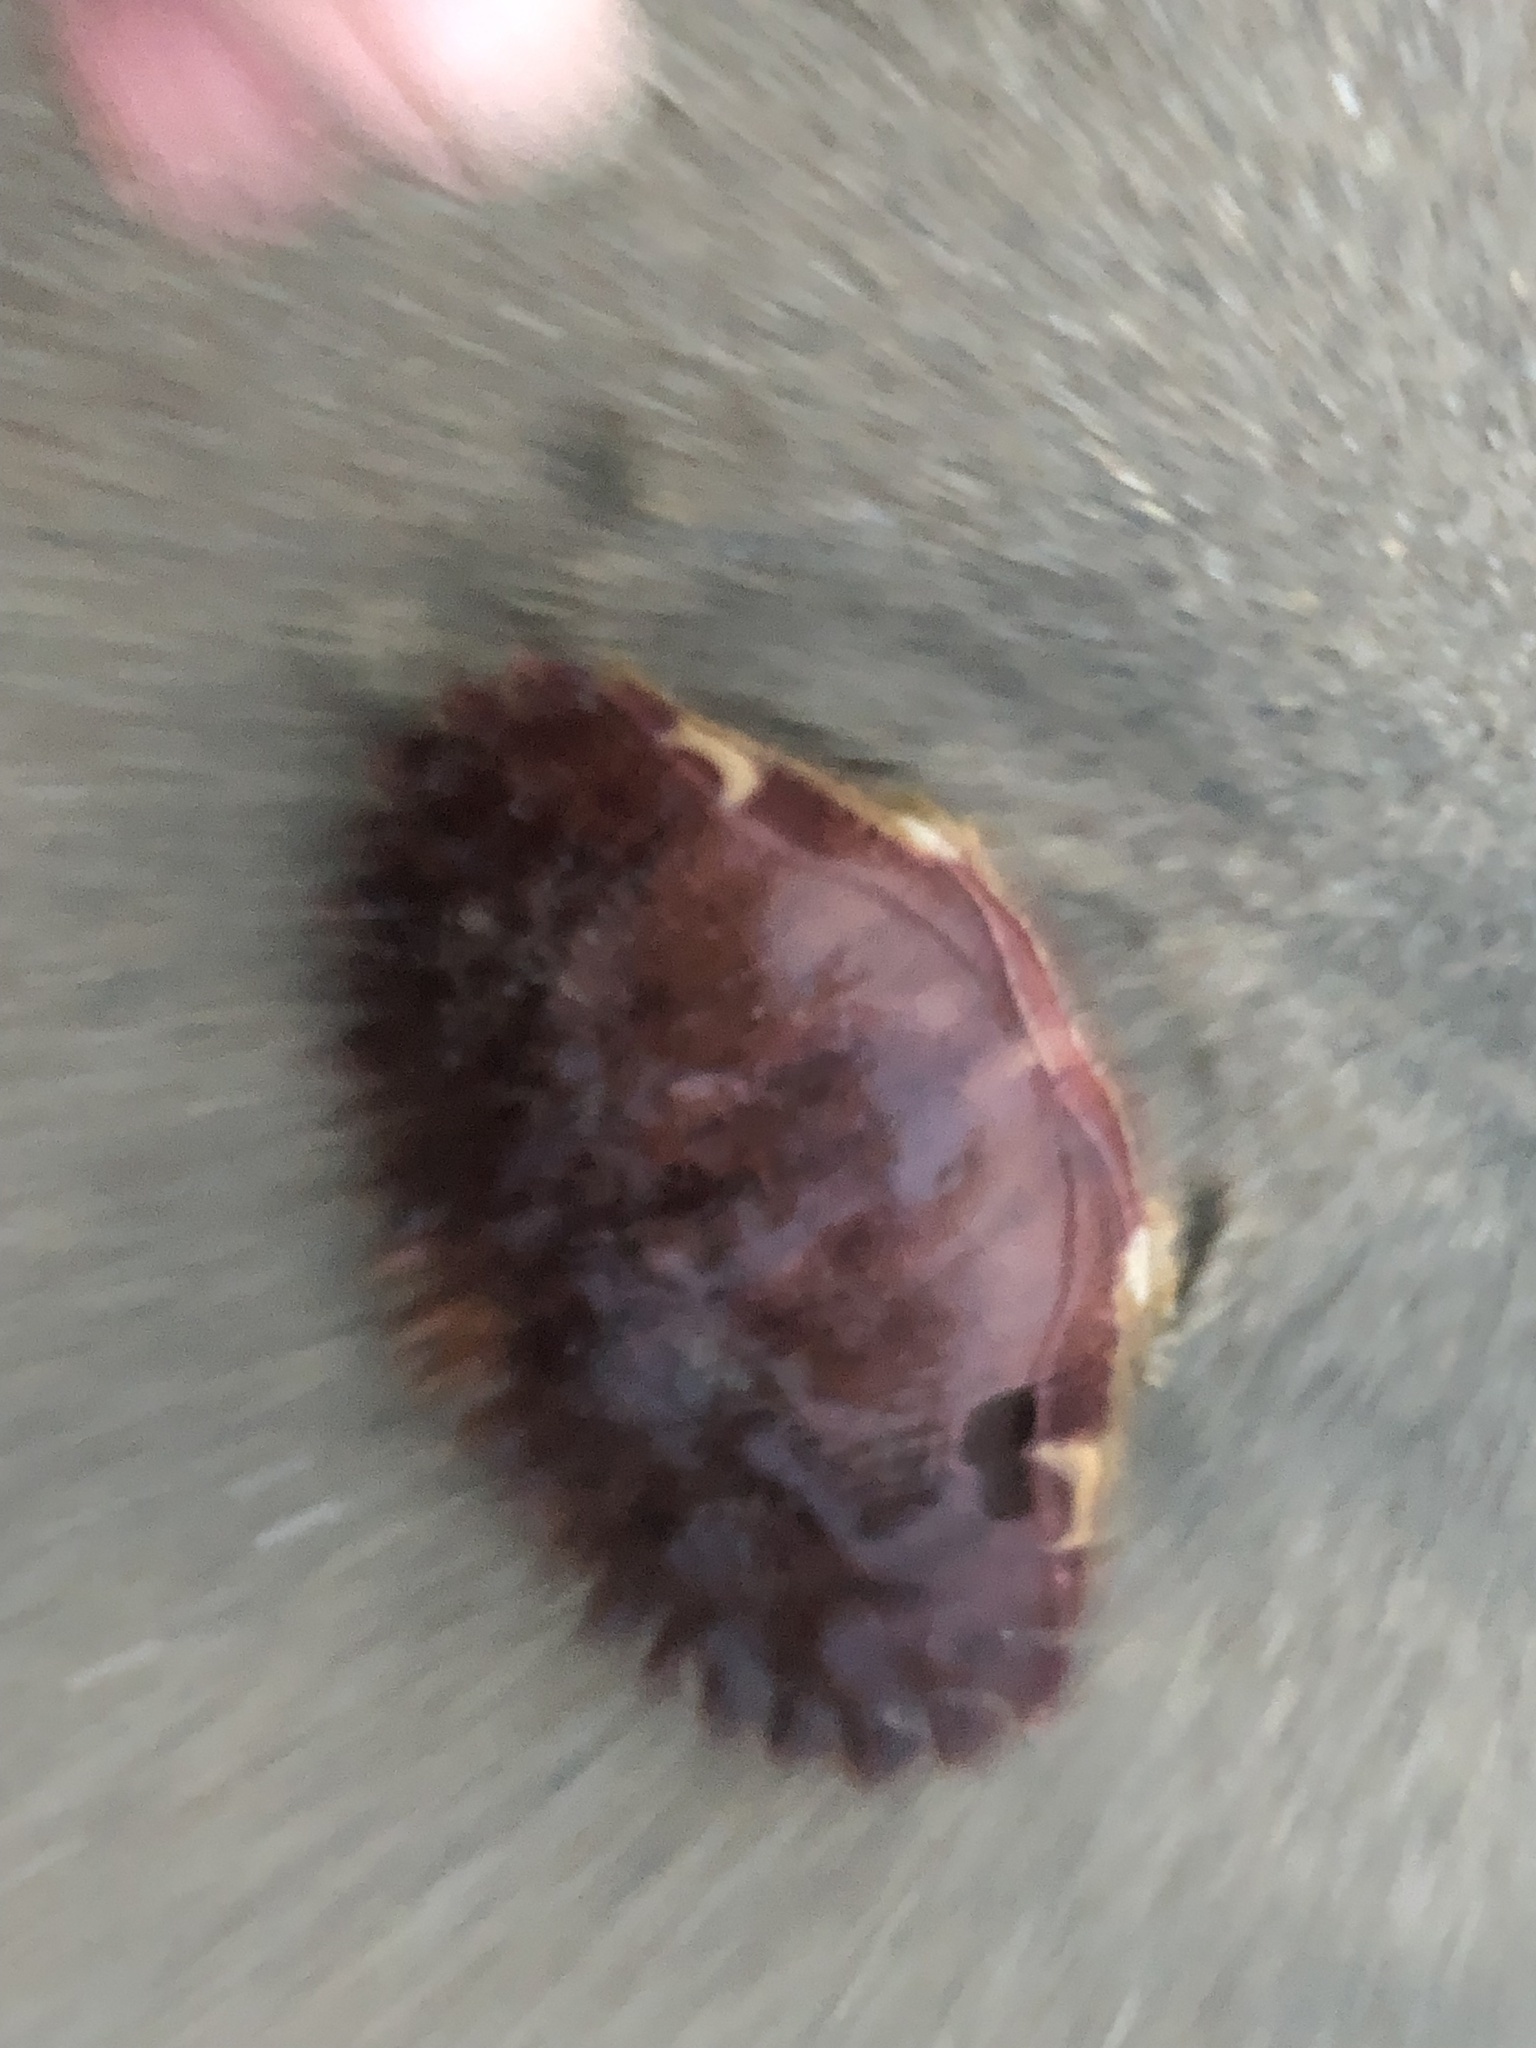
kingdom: Animalia
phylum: Arthropoda
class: Malacostraca
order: Decapoda
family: Cancridae
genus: Romaleon
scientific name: Romaleon antennarium
